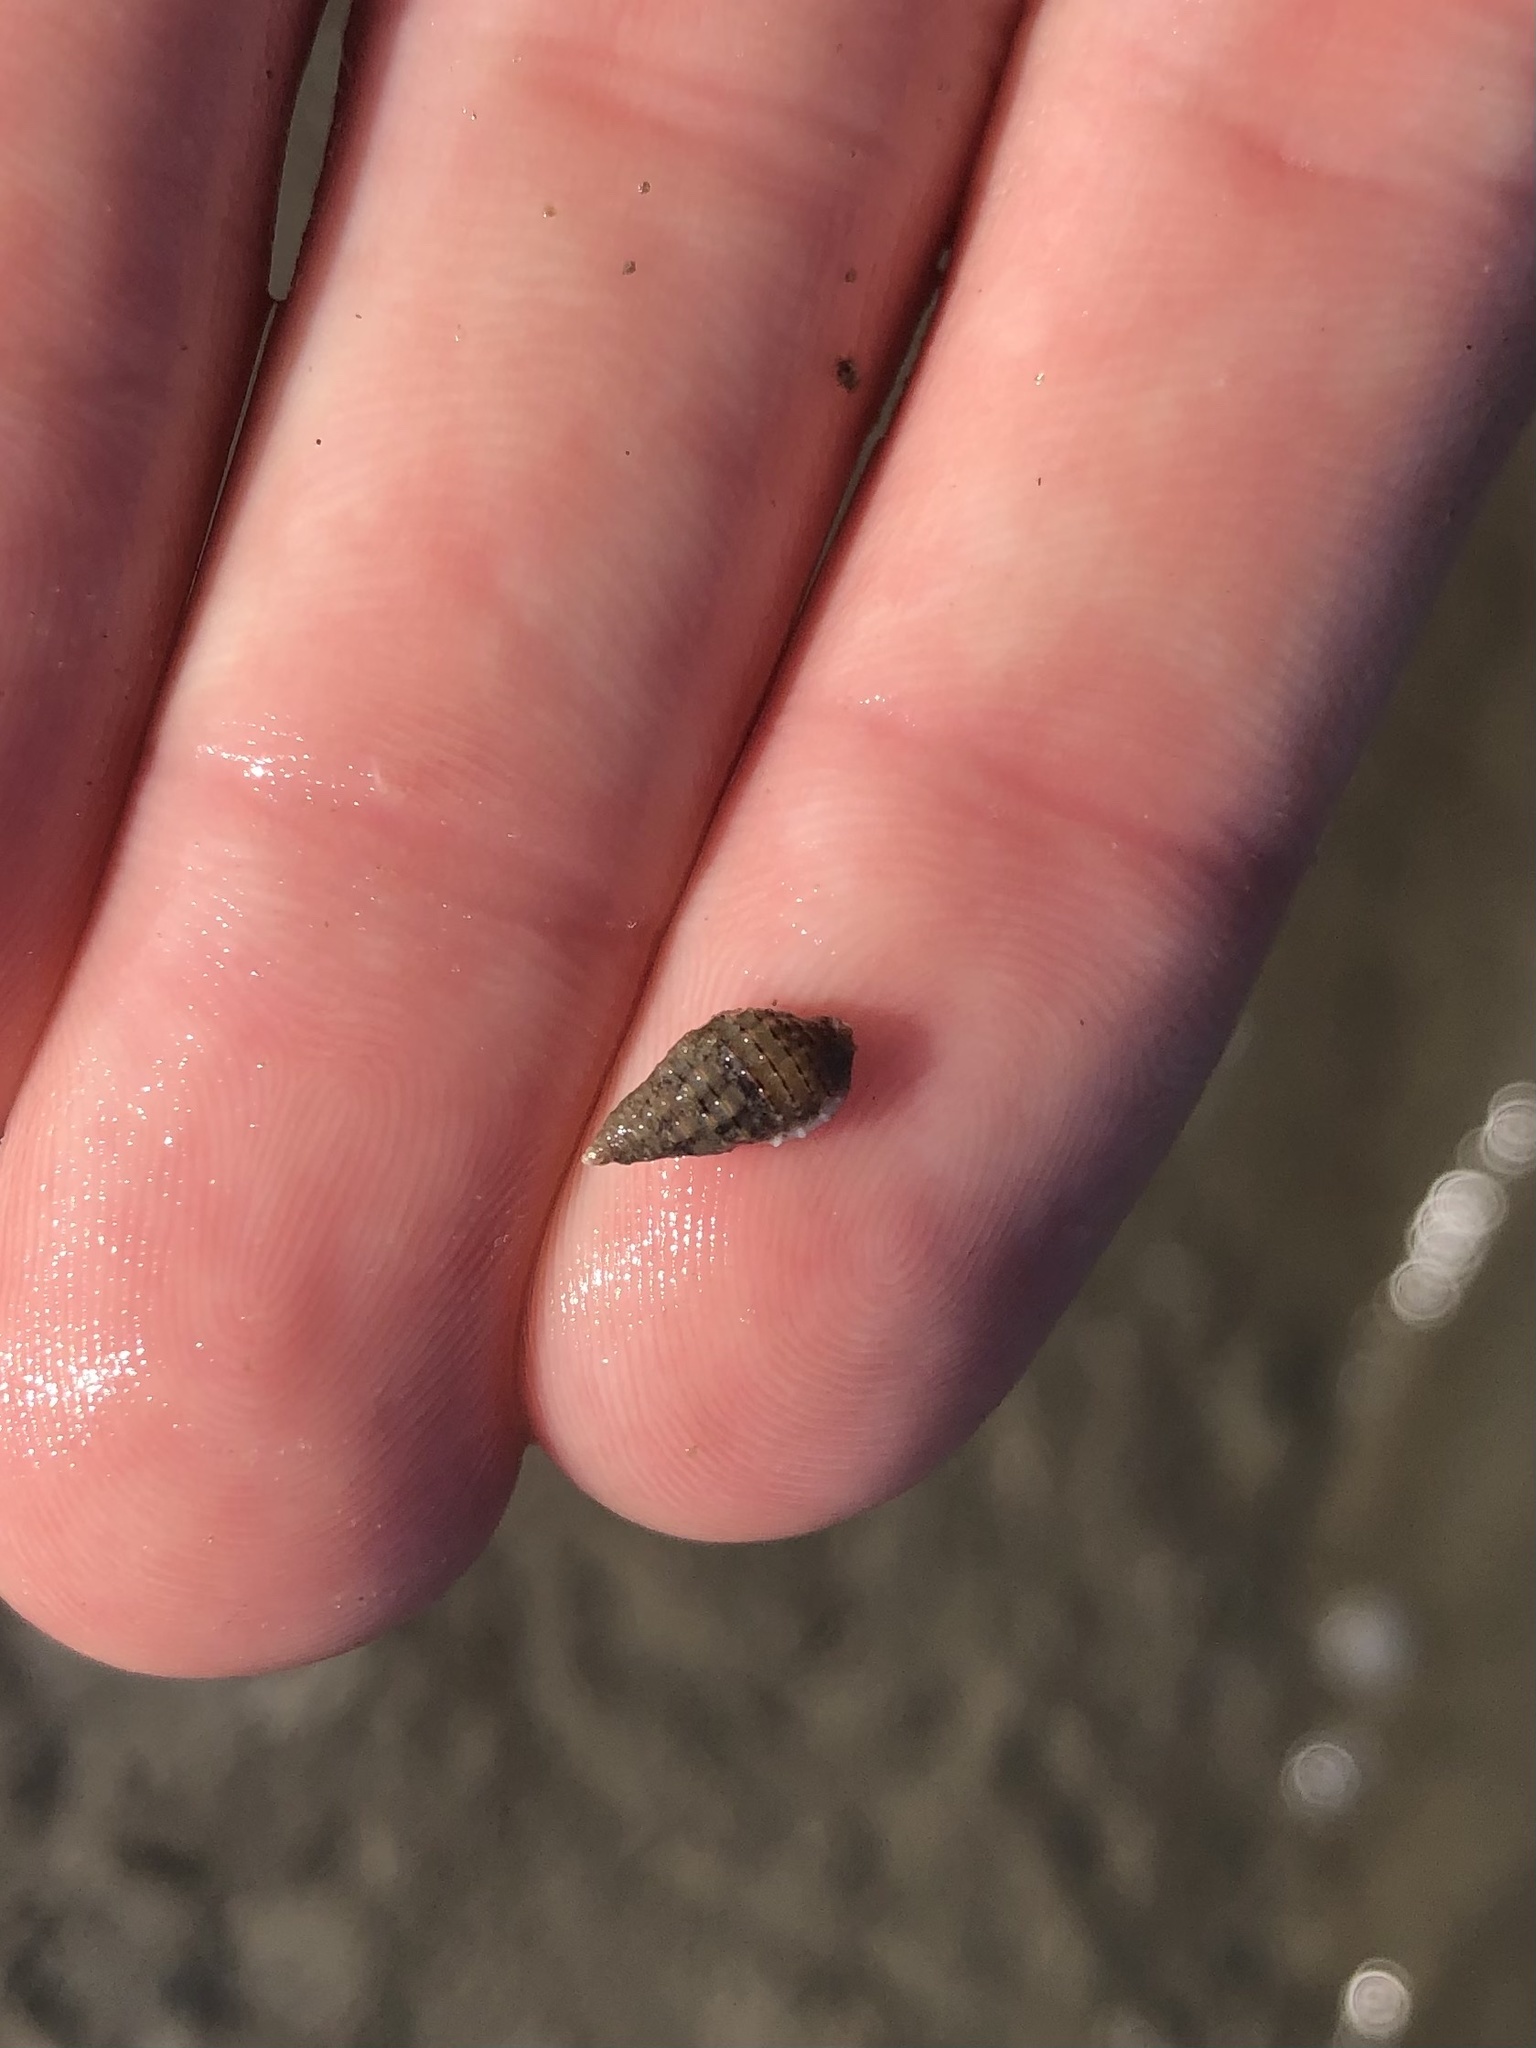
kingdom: Animalia
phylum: Mollusca
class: Gastropoda
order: Neogastropoda
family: Nassariidae
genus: Nassarius
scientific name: Nassarius acutus
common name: Sharp nassa
